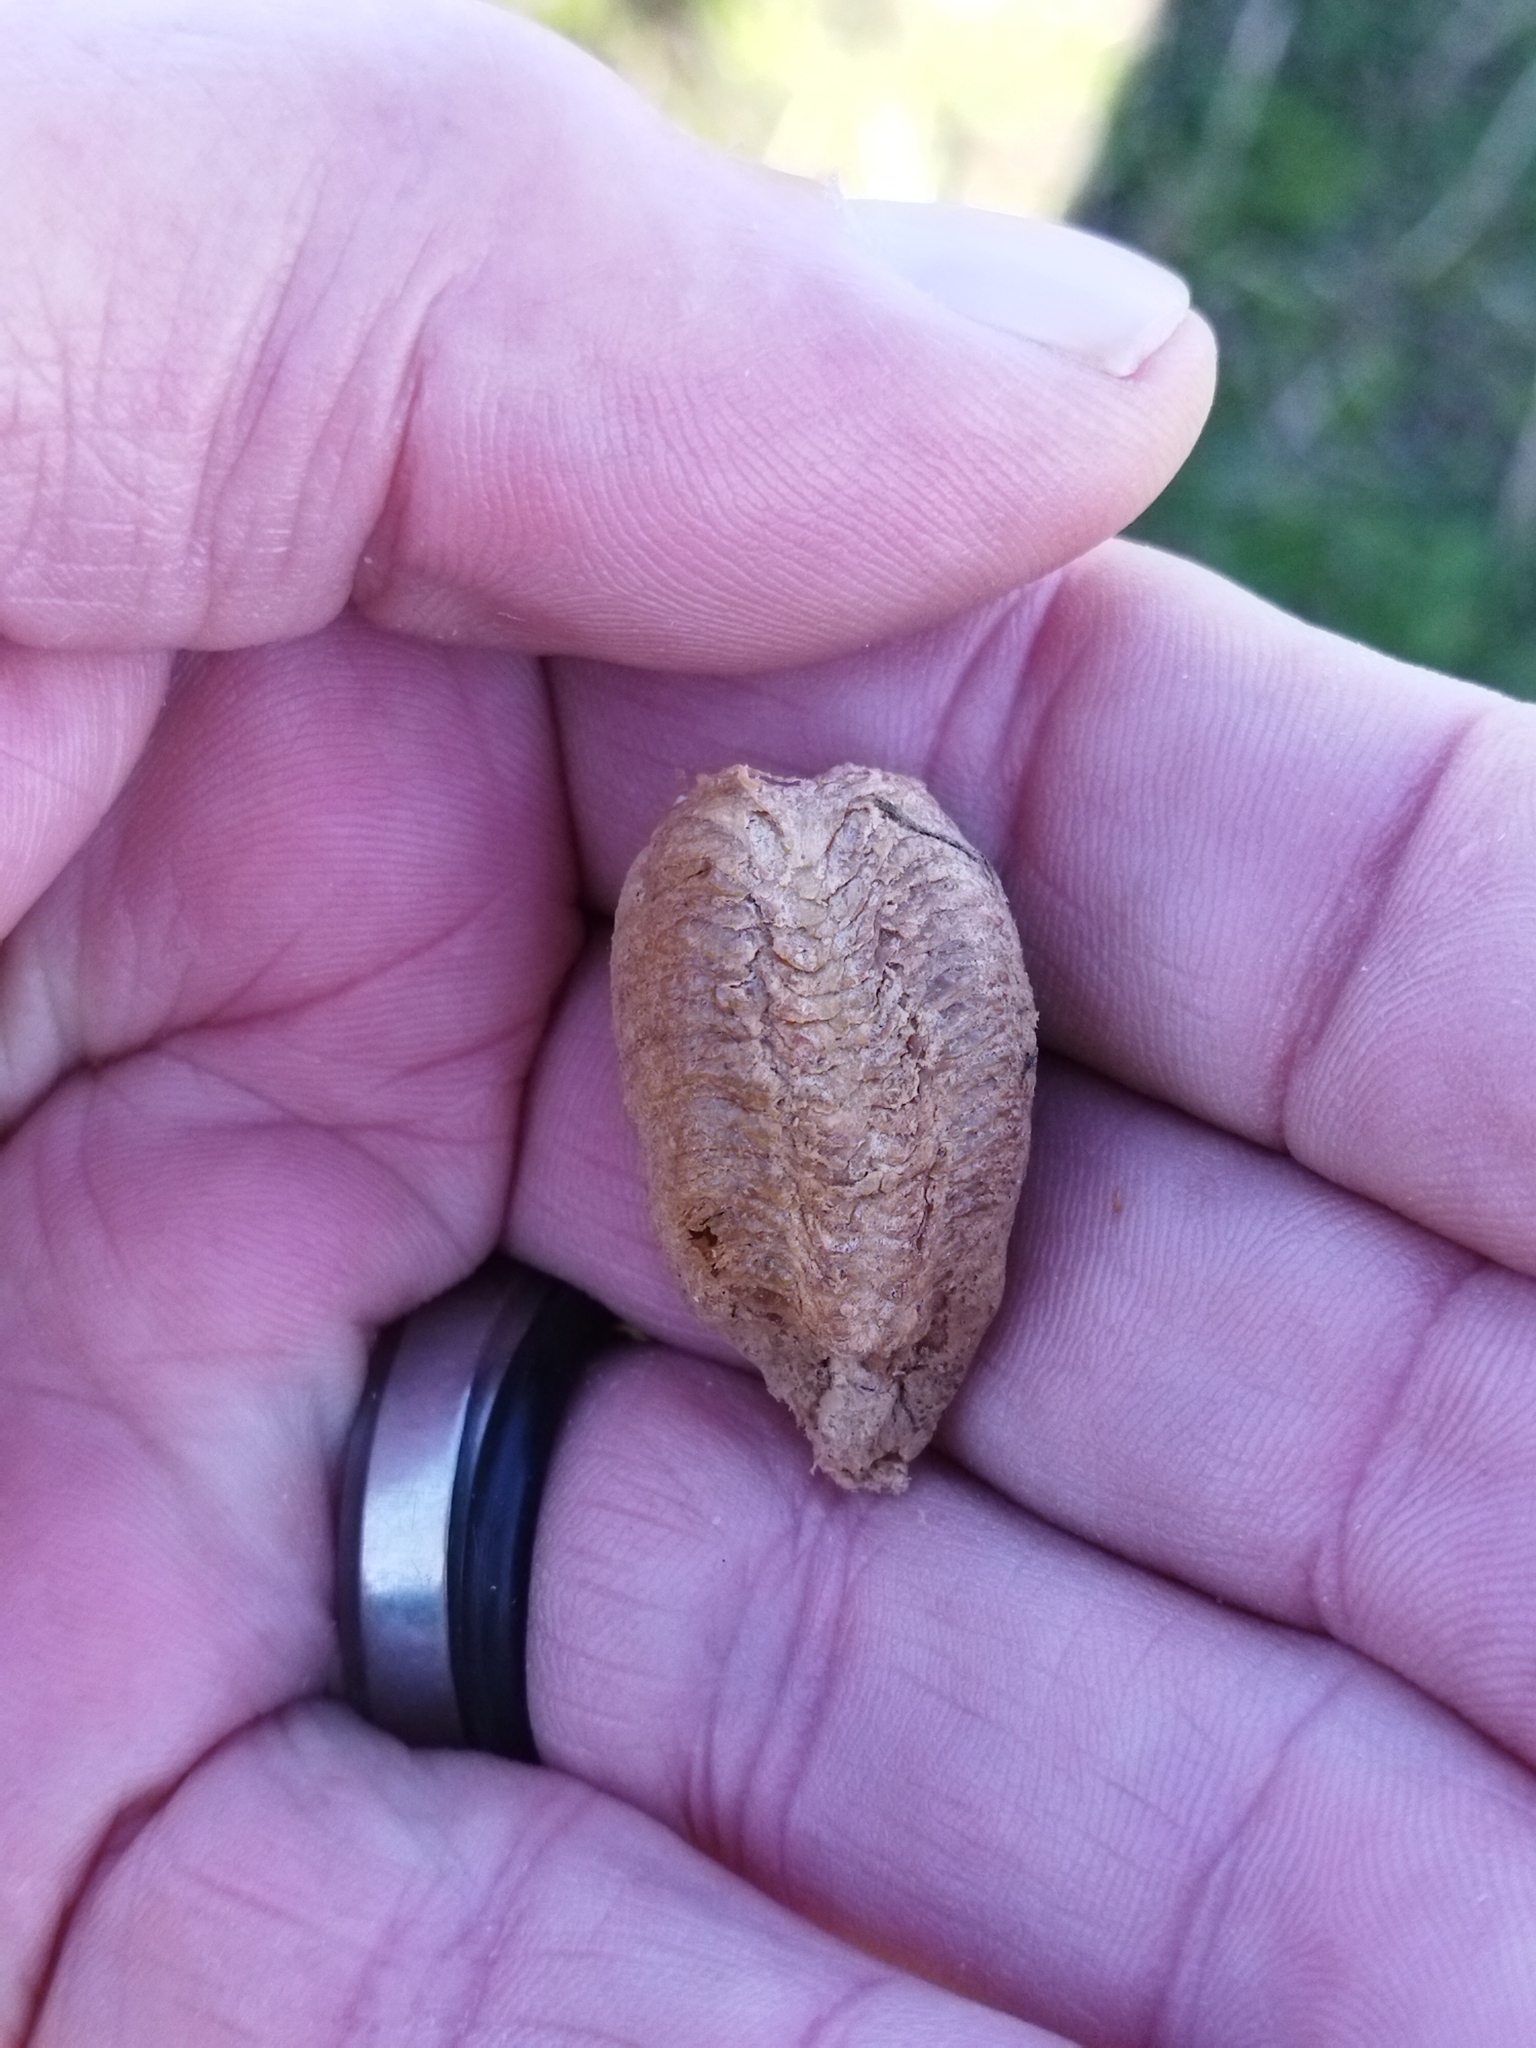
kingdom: Animalia
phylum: Arthropoda
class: Insecta
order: Mantodea
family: Mantidae
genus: Mantis
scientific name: Mantis religiosa
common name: Praying mantis
